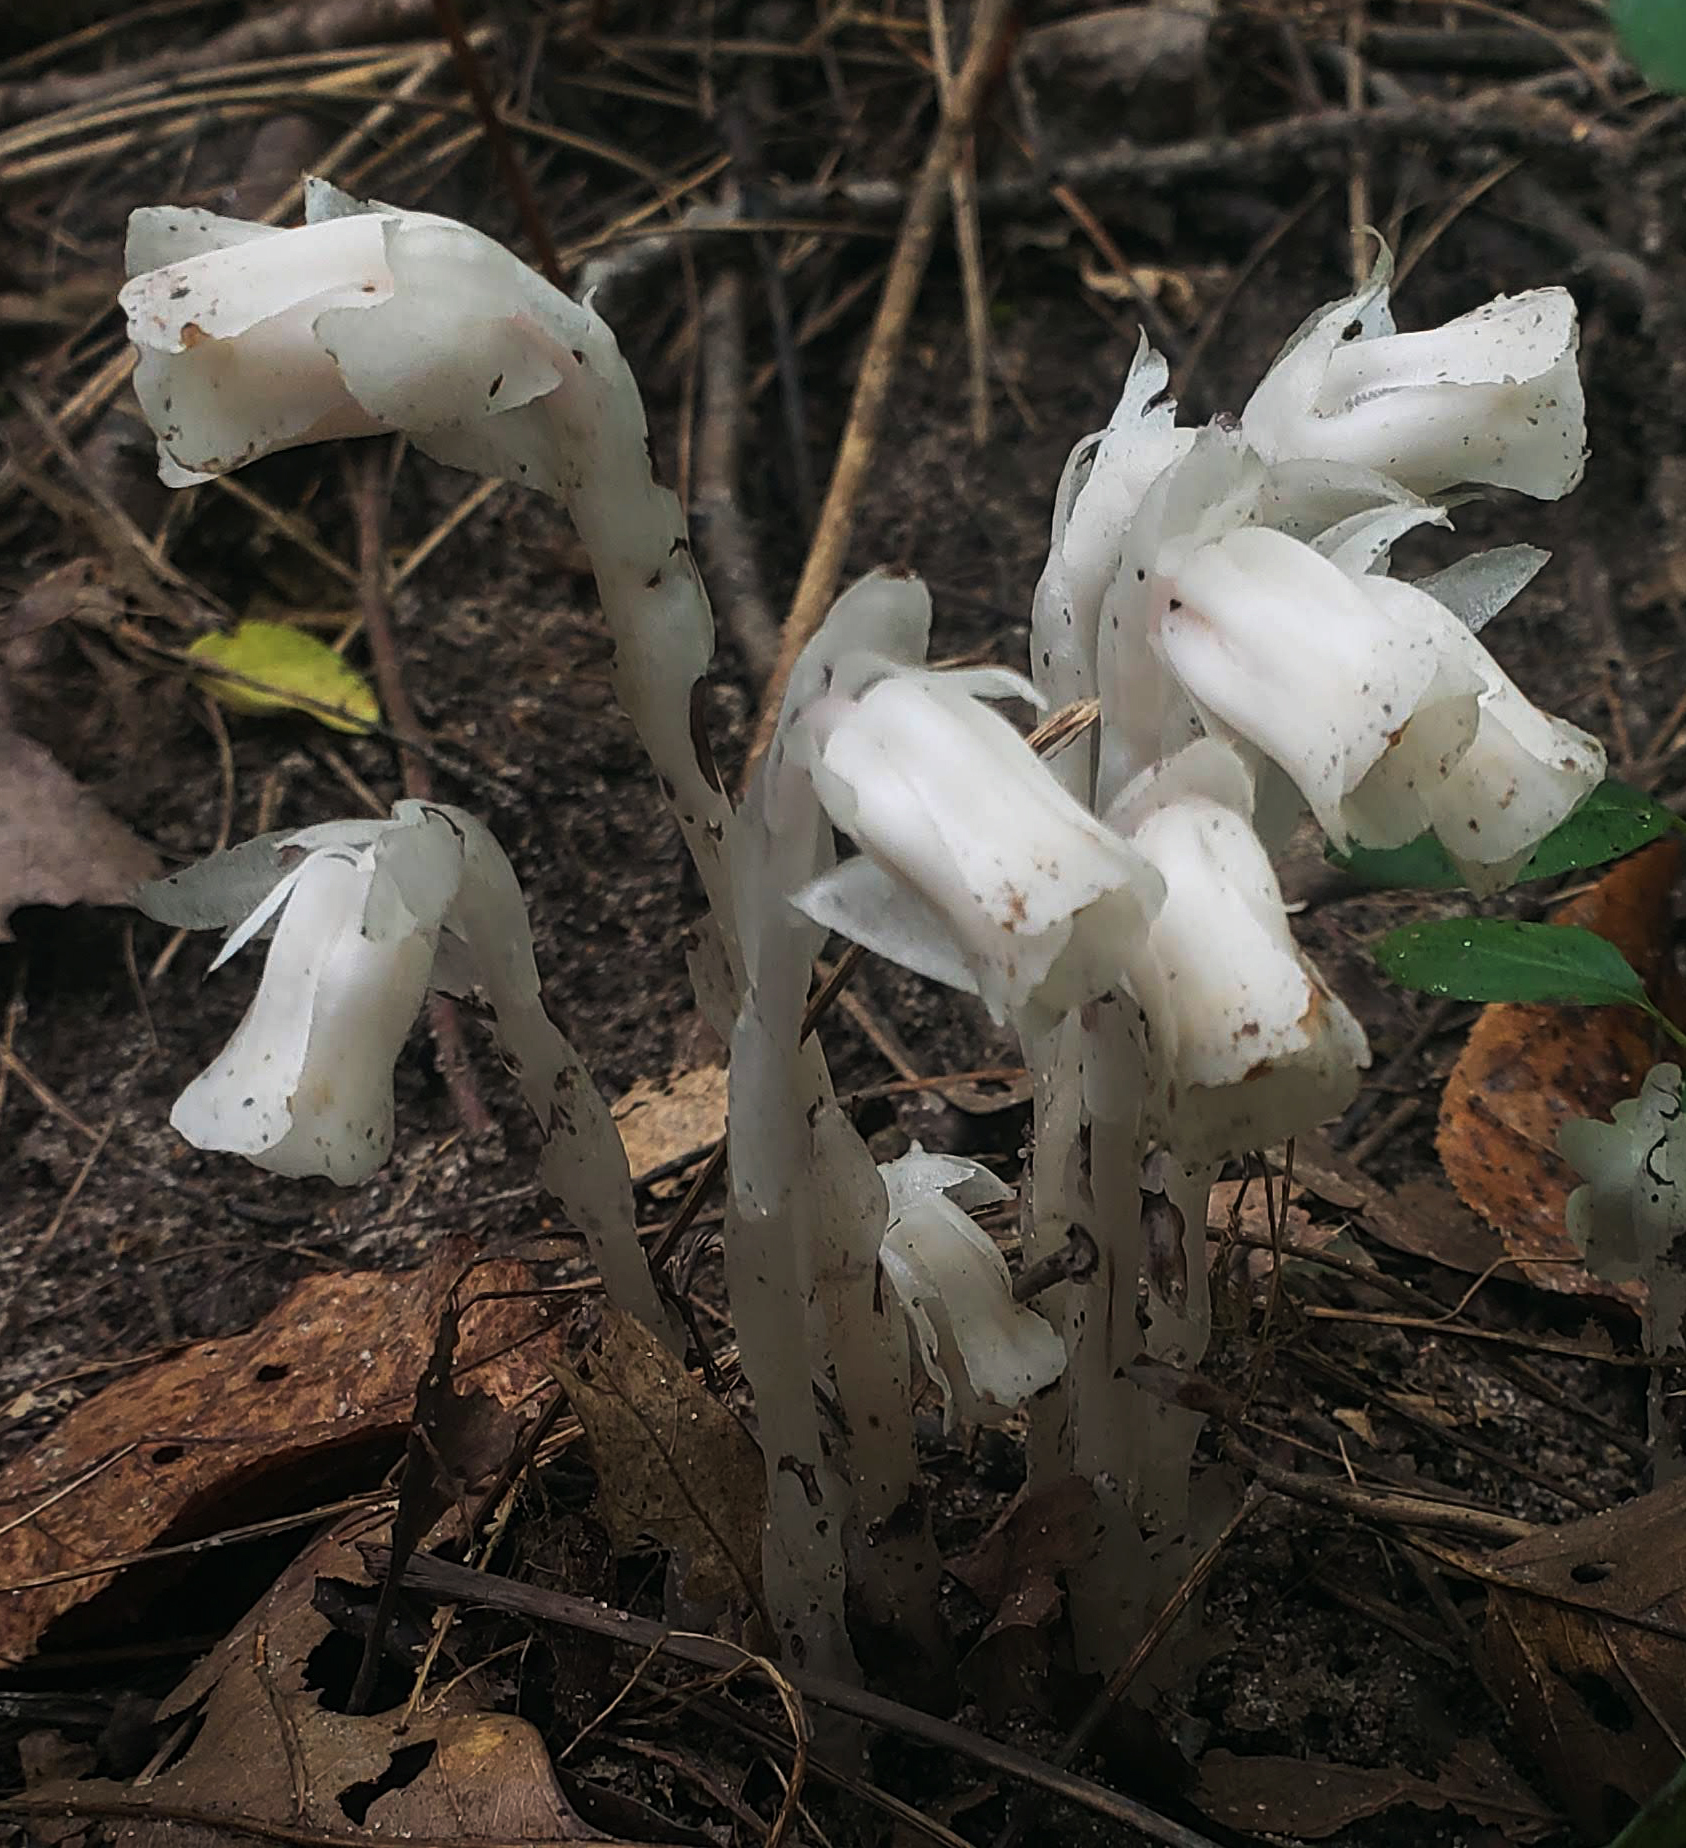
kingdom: Plantae
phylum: Tracheophyta
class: Magnoliopsida
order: Ericales
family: Ericaceae
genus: Monotropa
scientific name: Monotropa uniflora
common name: Convulsion root
